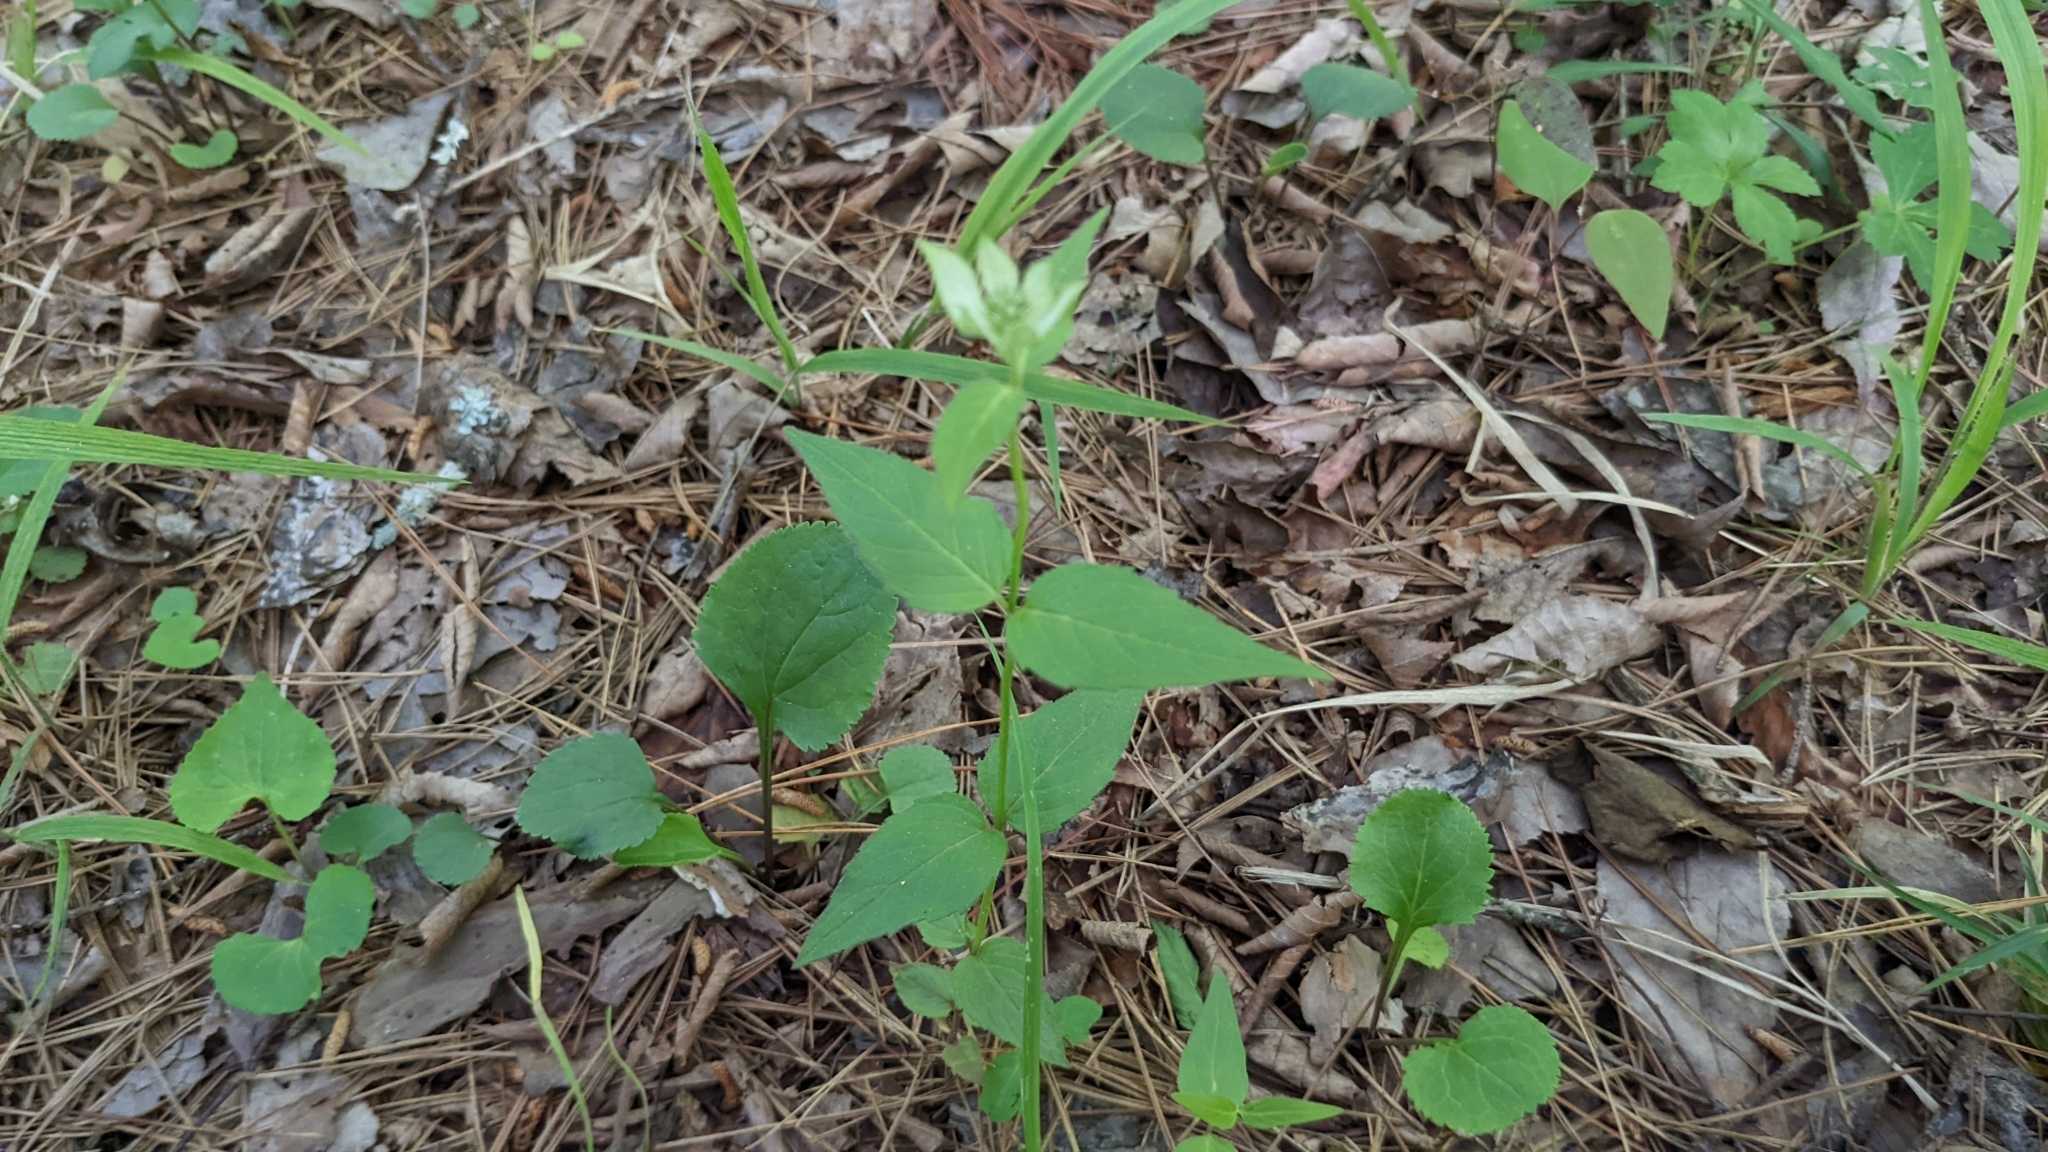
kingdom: Plantae
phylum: Tracheophyta
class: Magnoliopsida
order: Lamiales
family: Lamiaceae
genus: Monarda
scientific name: Monarda russeliana
